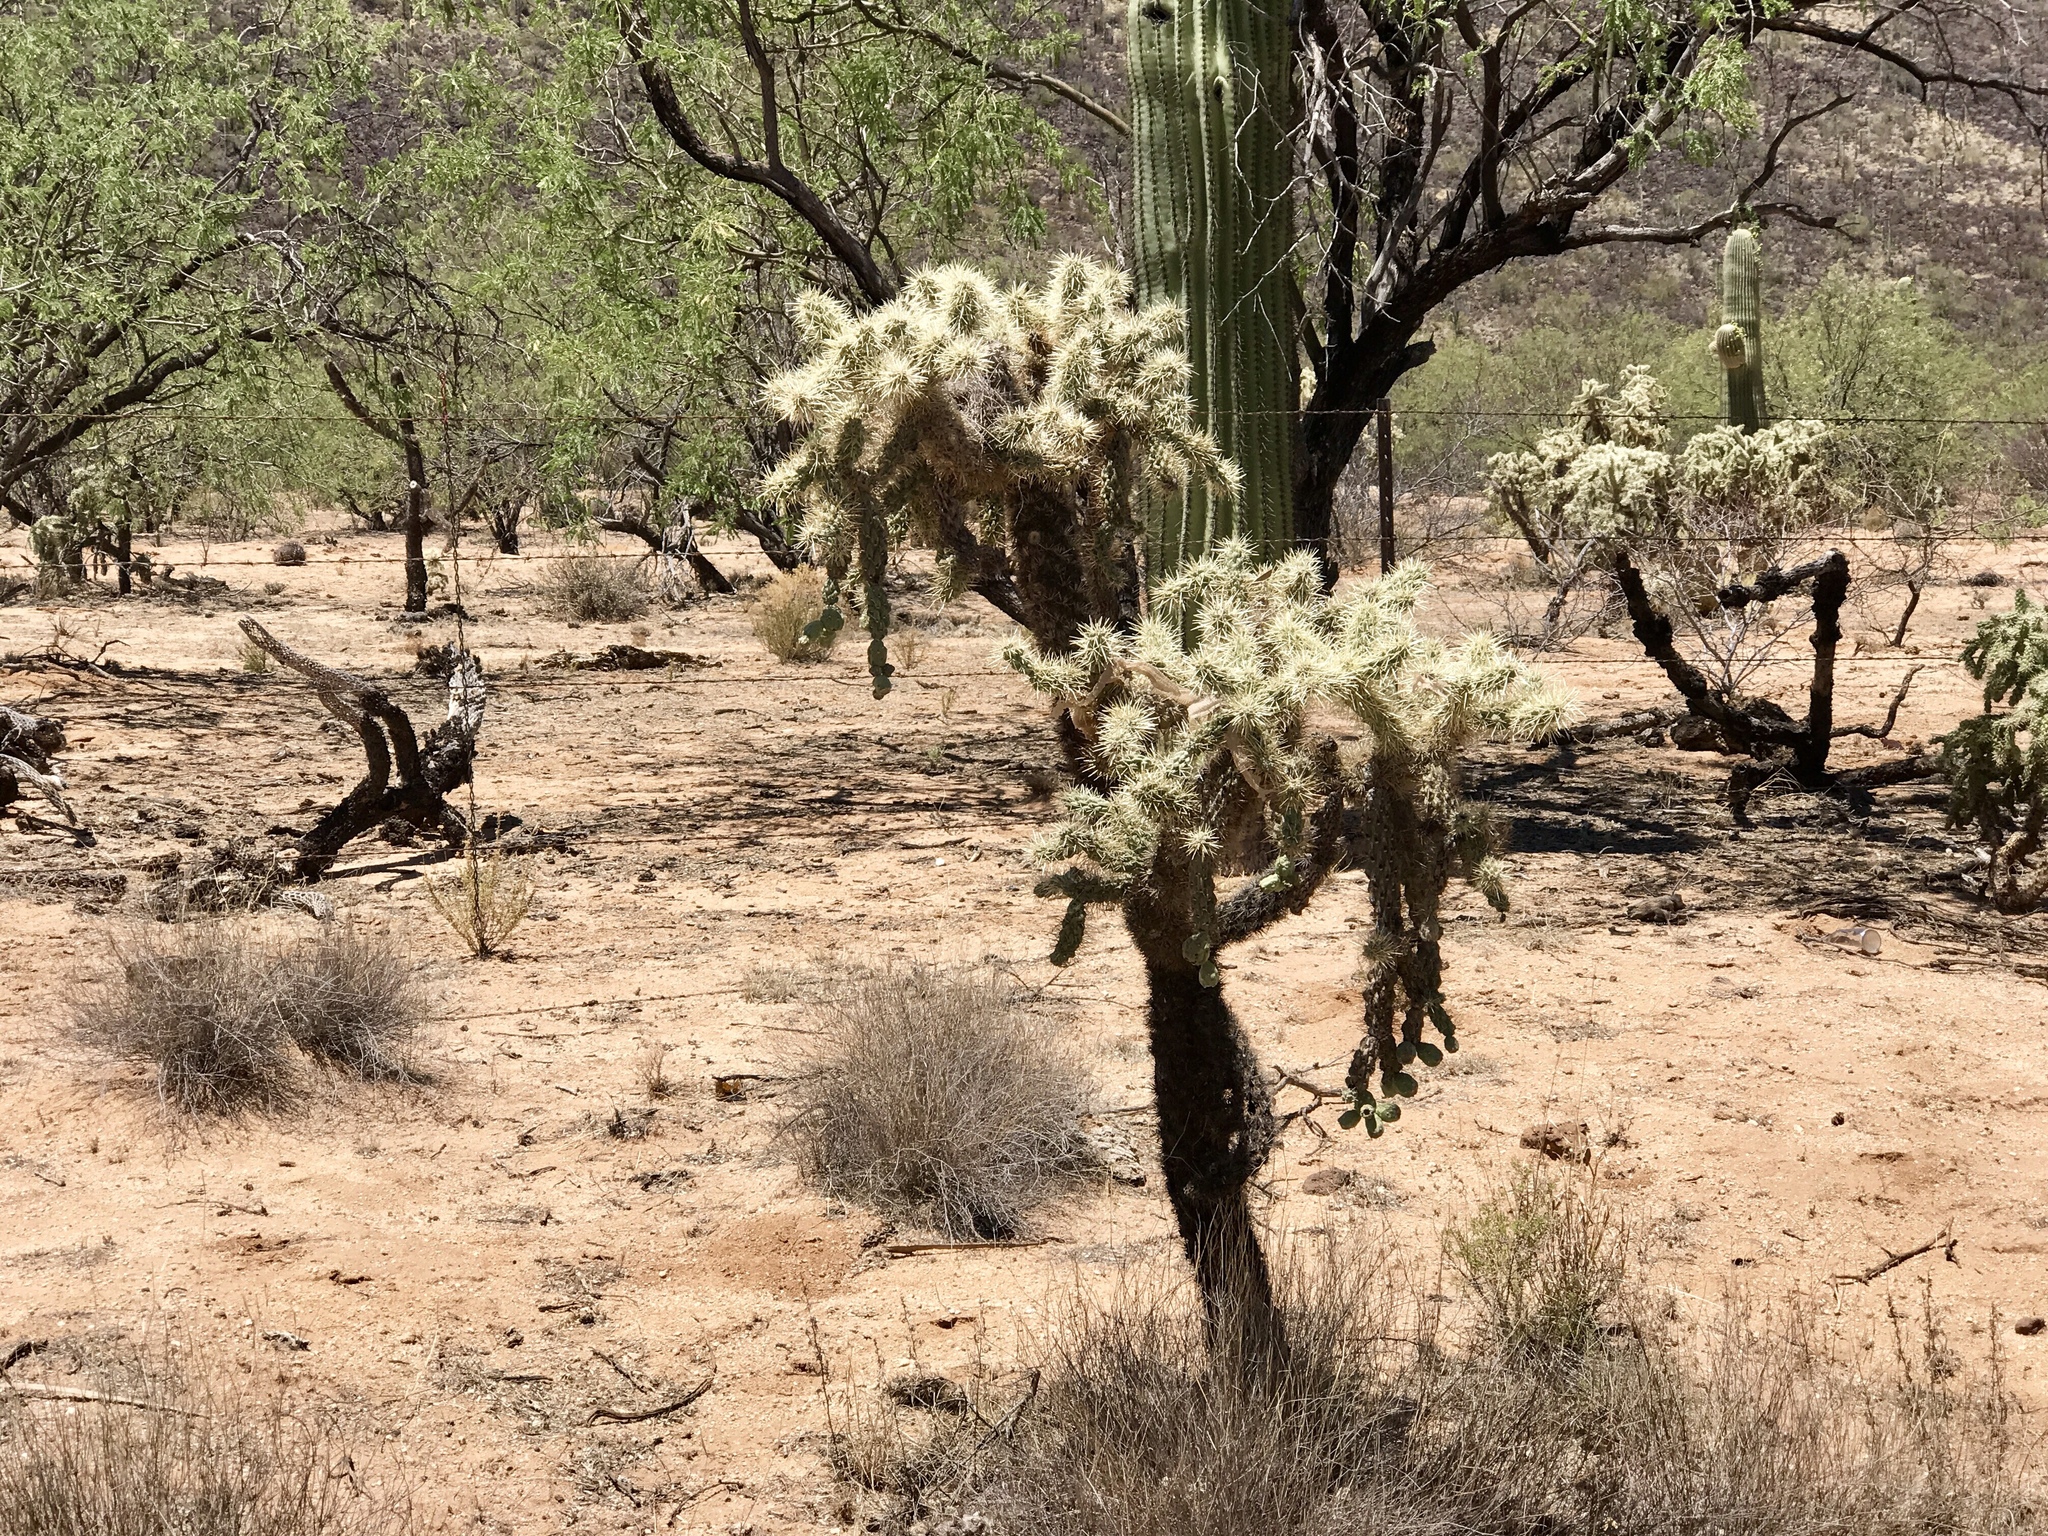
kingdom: Plantae
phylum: Tracheophyta
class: Magnoliopsida
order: Caryophyllales
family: Cactaceae
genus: Cylindropuntia
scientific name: Cylindropuntia fulgida
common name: Jumping cholla
